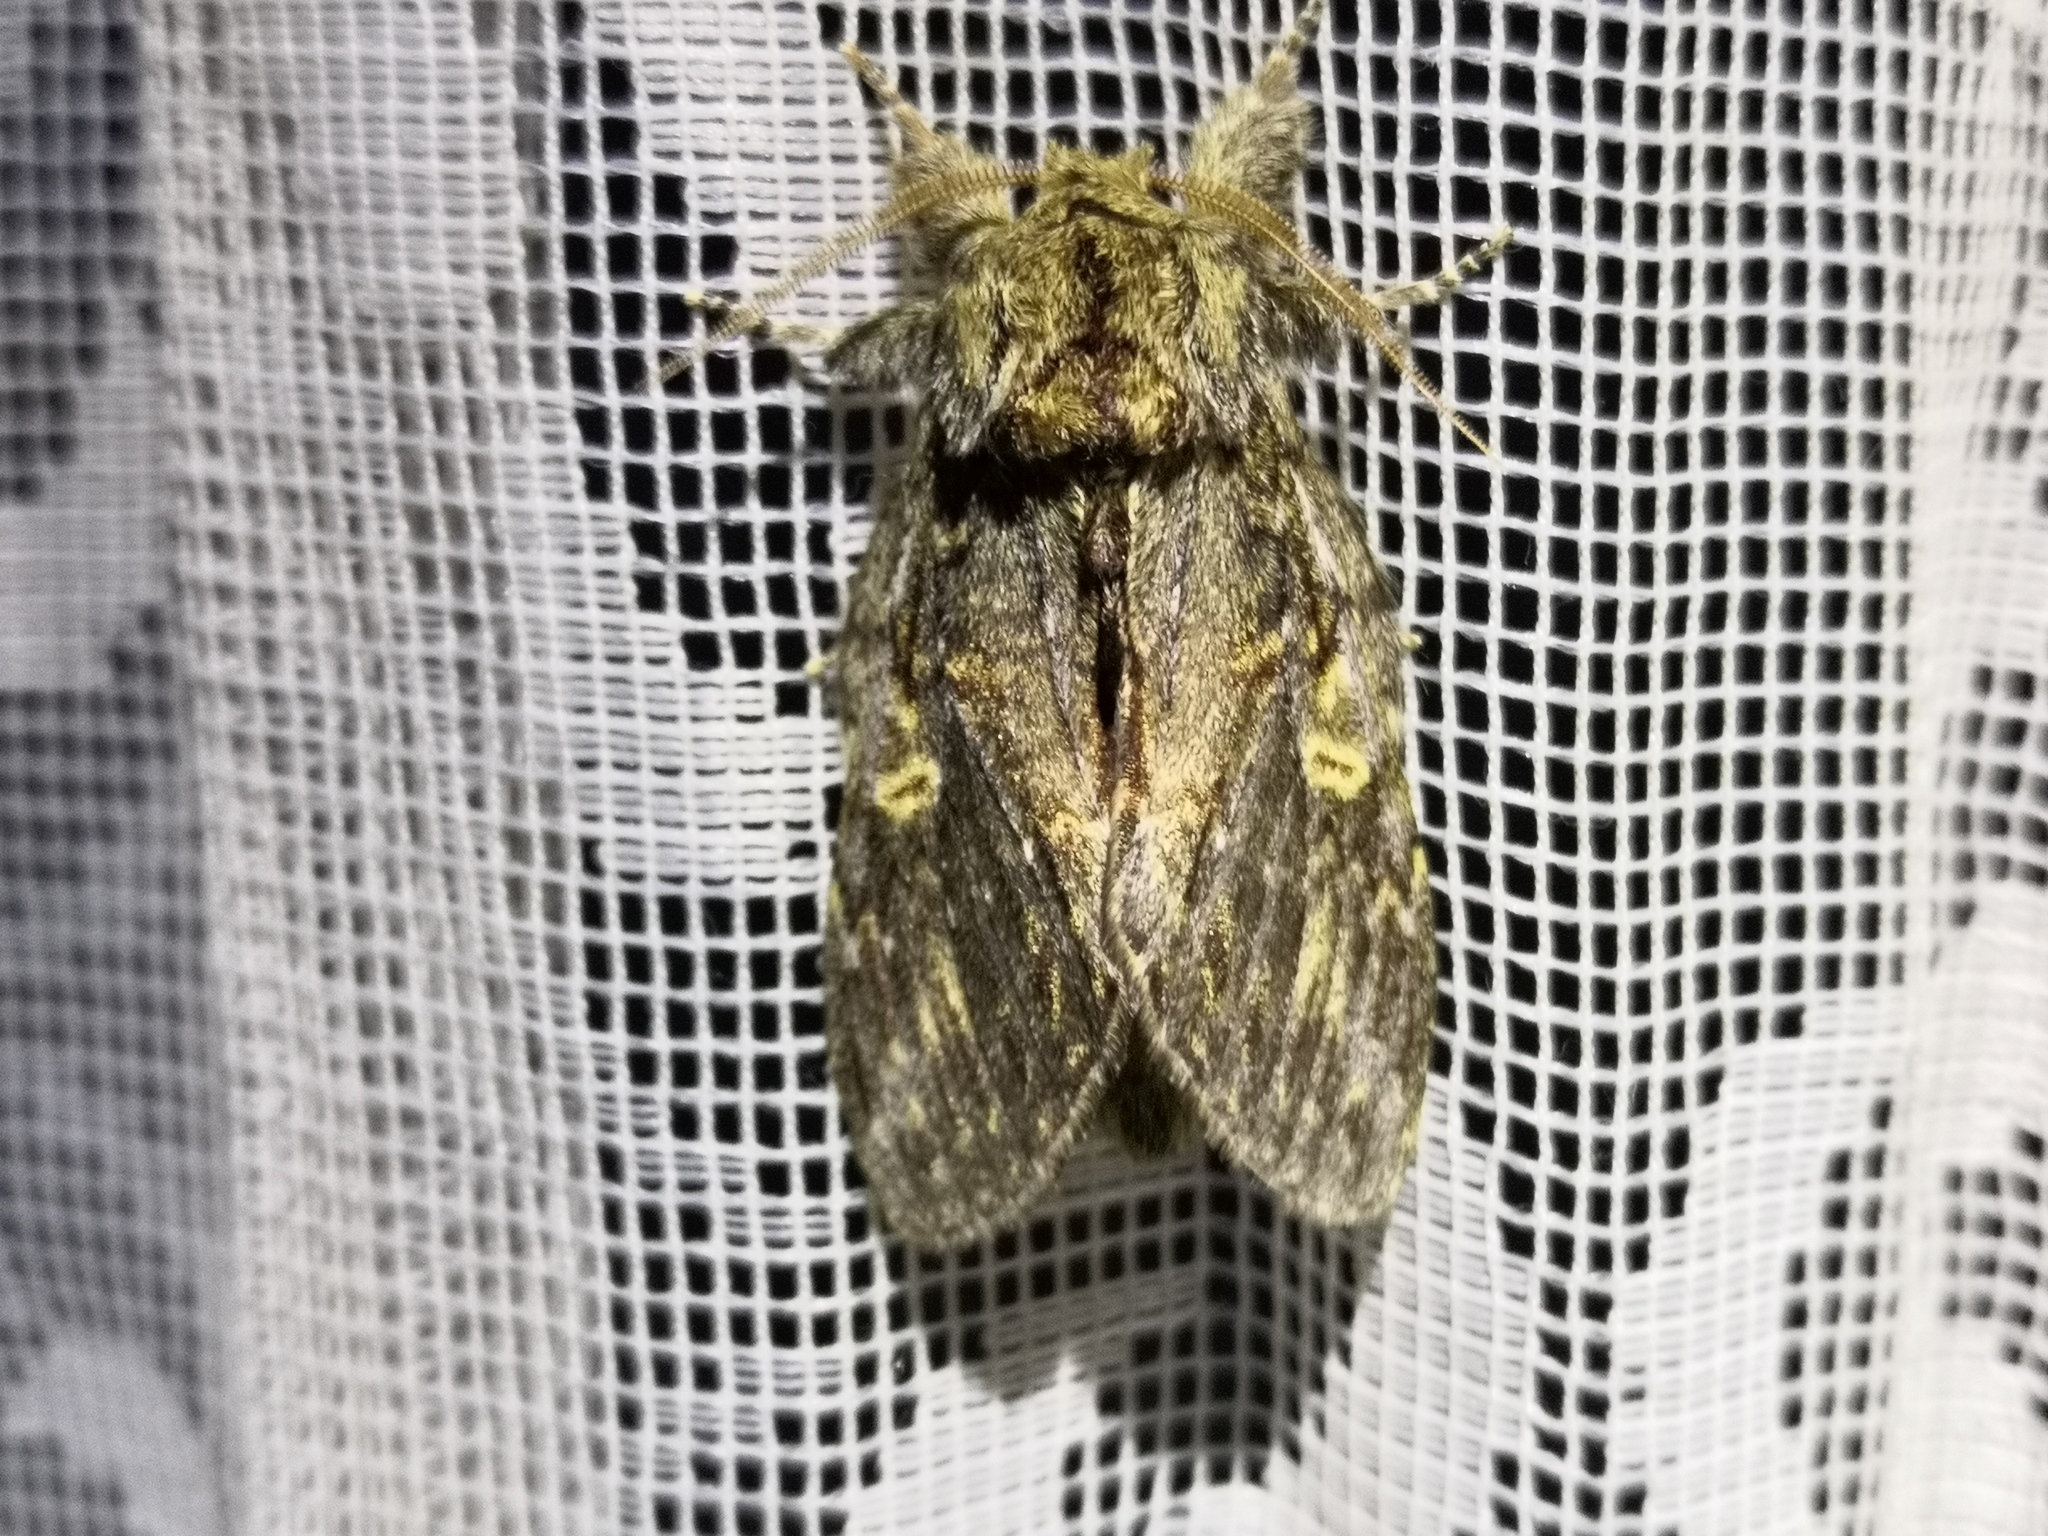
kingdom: Animalia
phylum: Arthropoda
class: Insecta
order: Lepidoptera
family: Notodontidae
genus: Peridea
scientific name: Peridea anceps
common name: Great prominent
